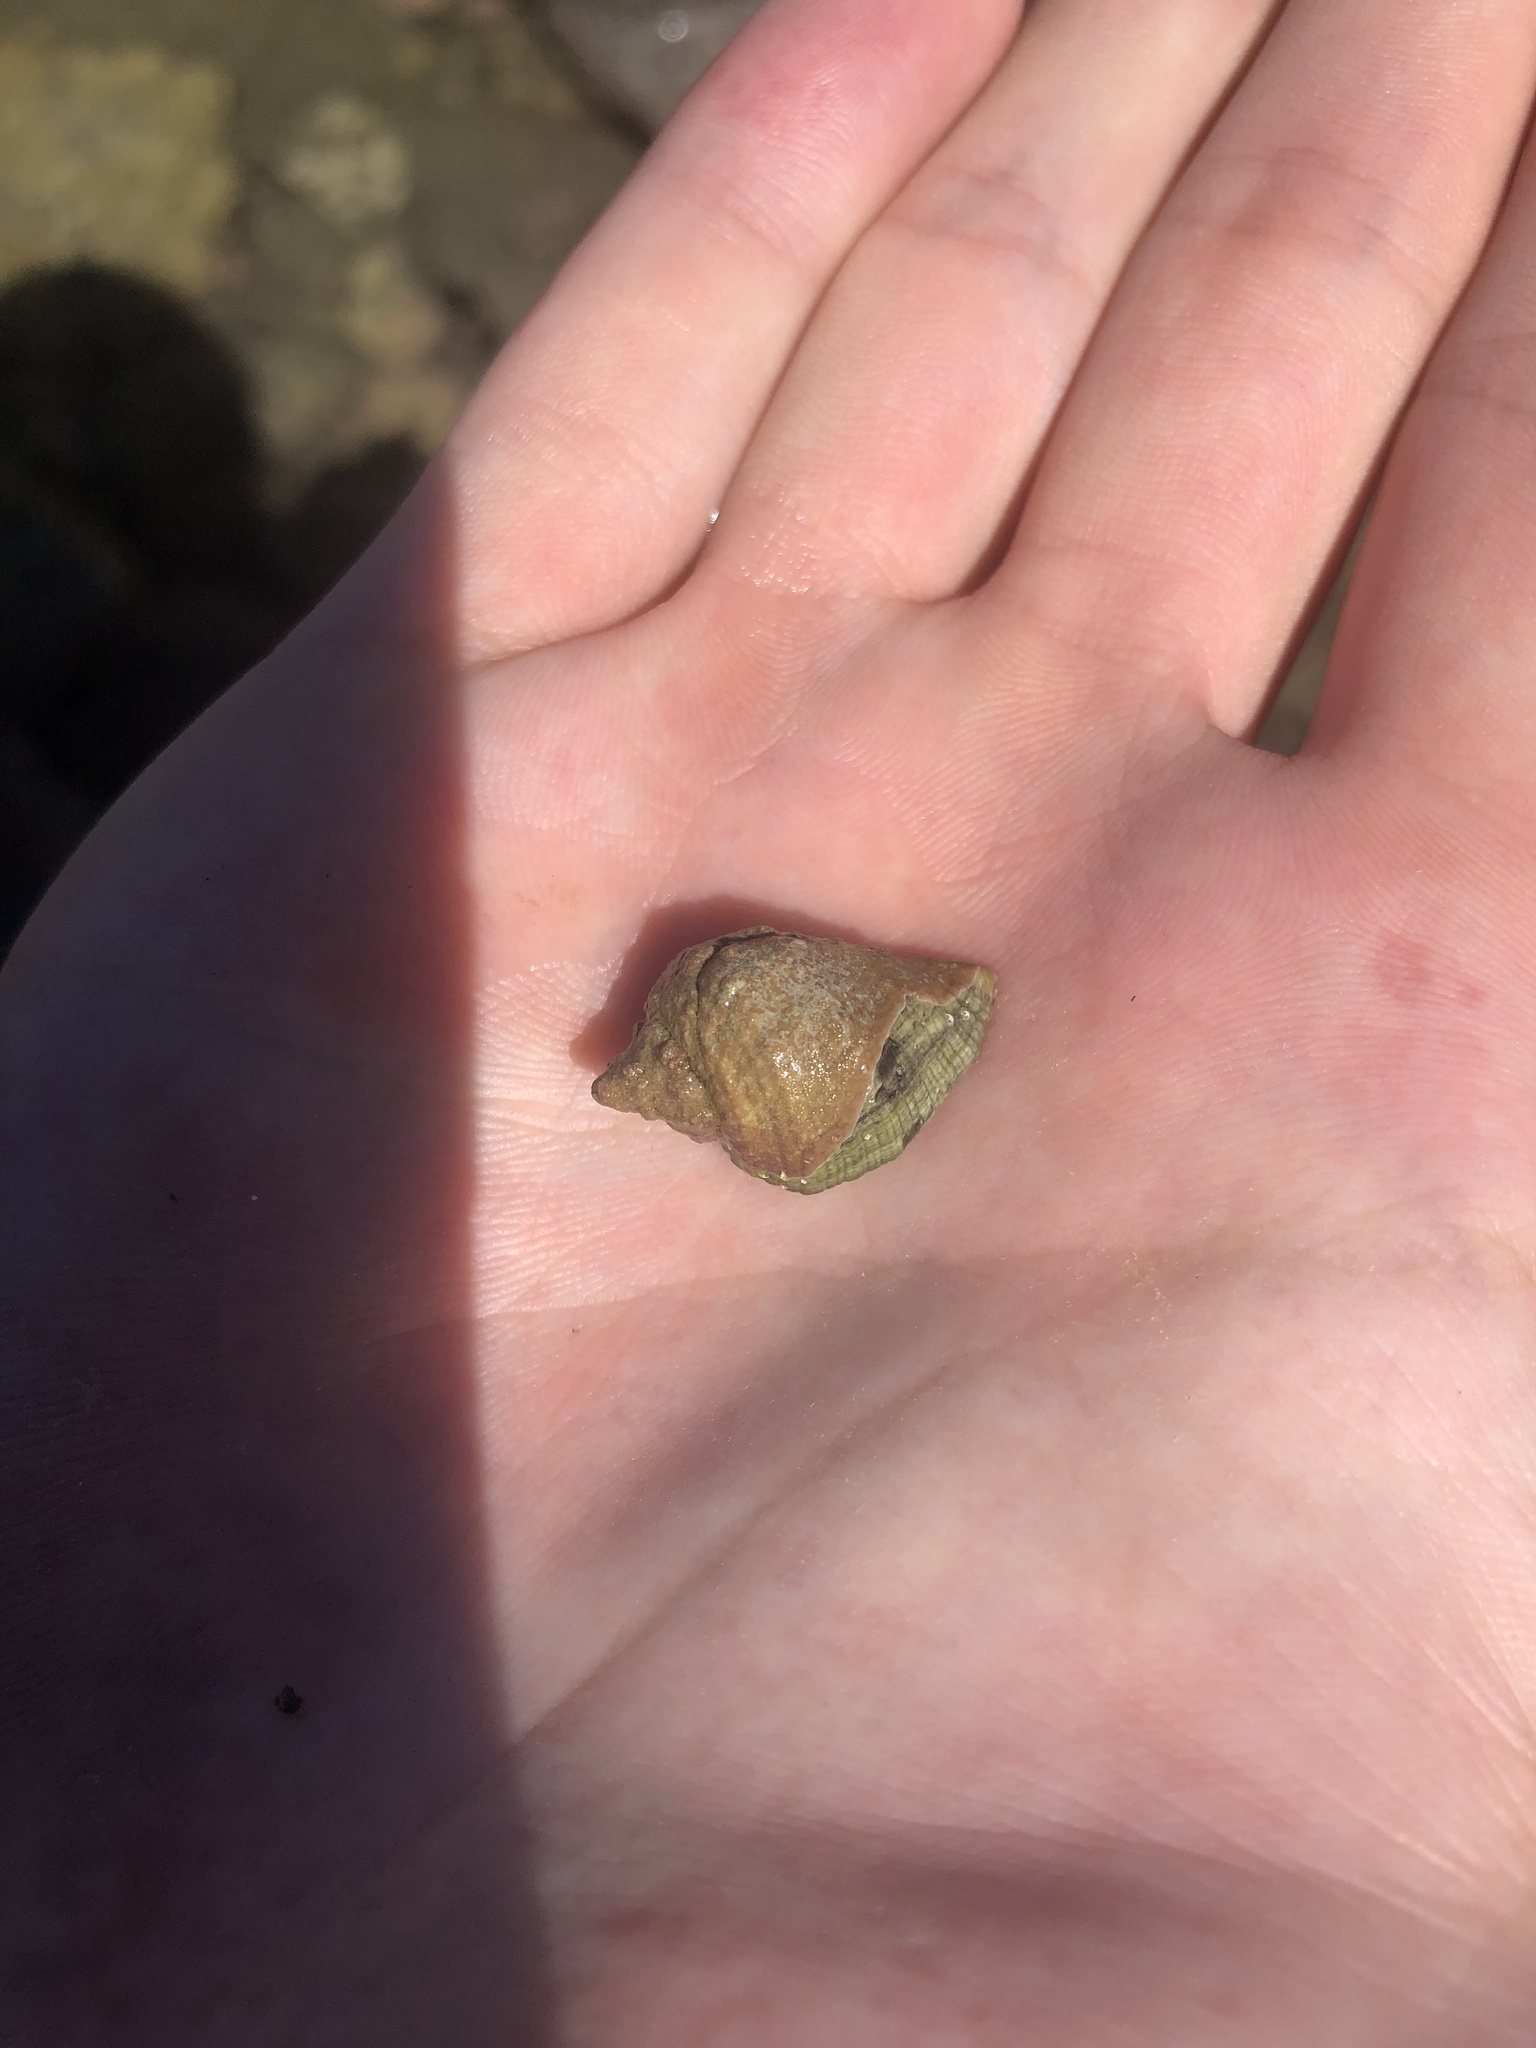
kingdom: Animalia
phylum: Mollusca
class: Gastropoda
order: Neogastropoda
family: Muricidae
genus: Haustrum
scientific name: Haustrum haustorium
